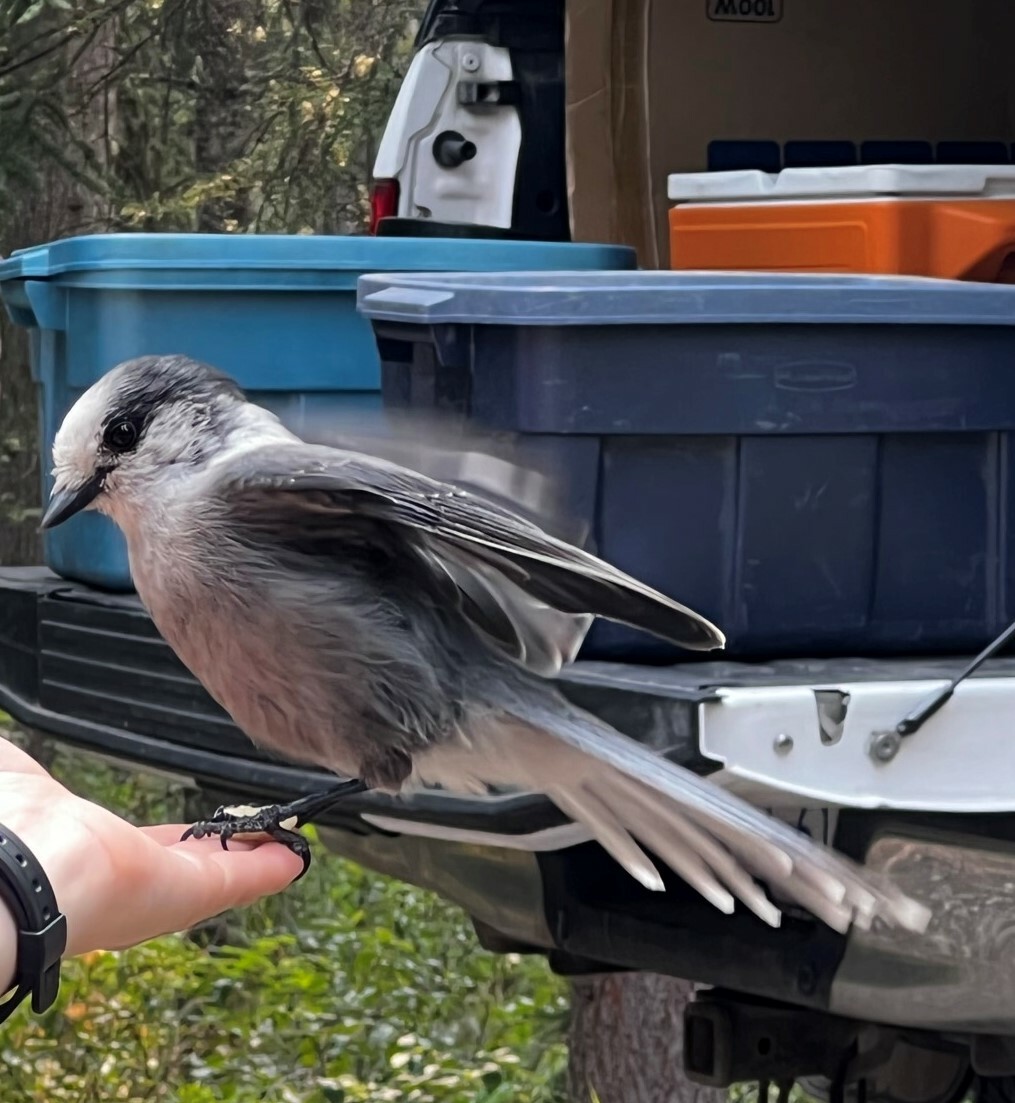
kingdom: Animalia
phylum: Chordata
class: Aves
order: Passeriformes
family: Corvidae
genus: Perisoreus
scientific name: Perisoreus canadensis
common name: Gray jay
